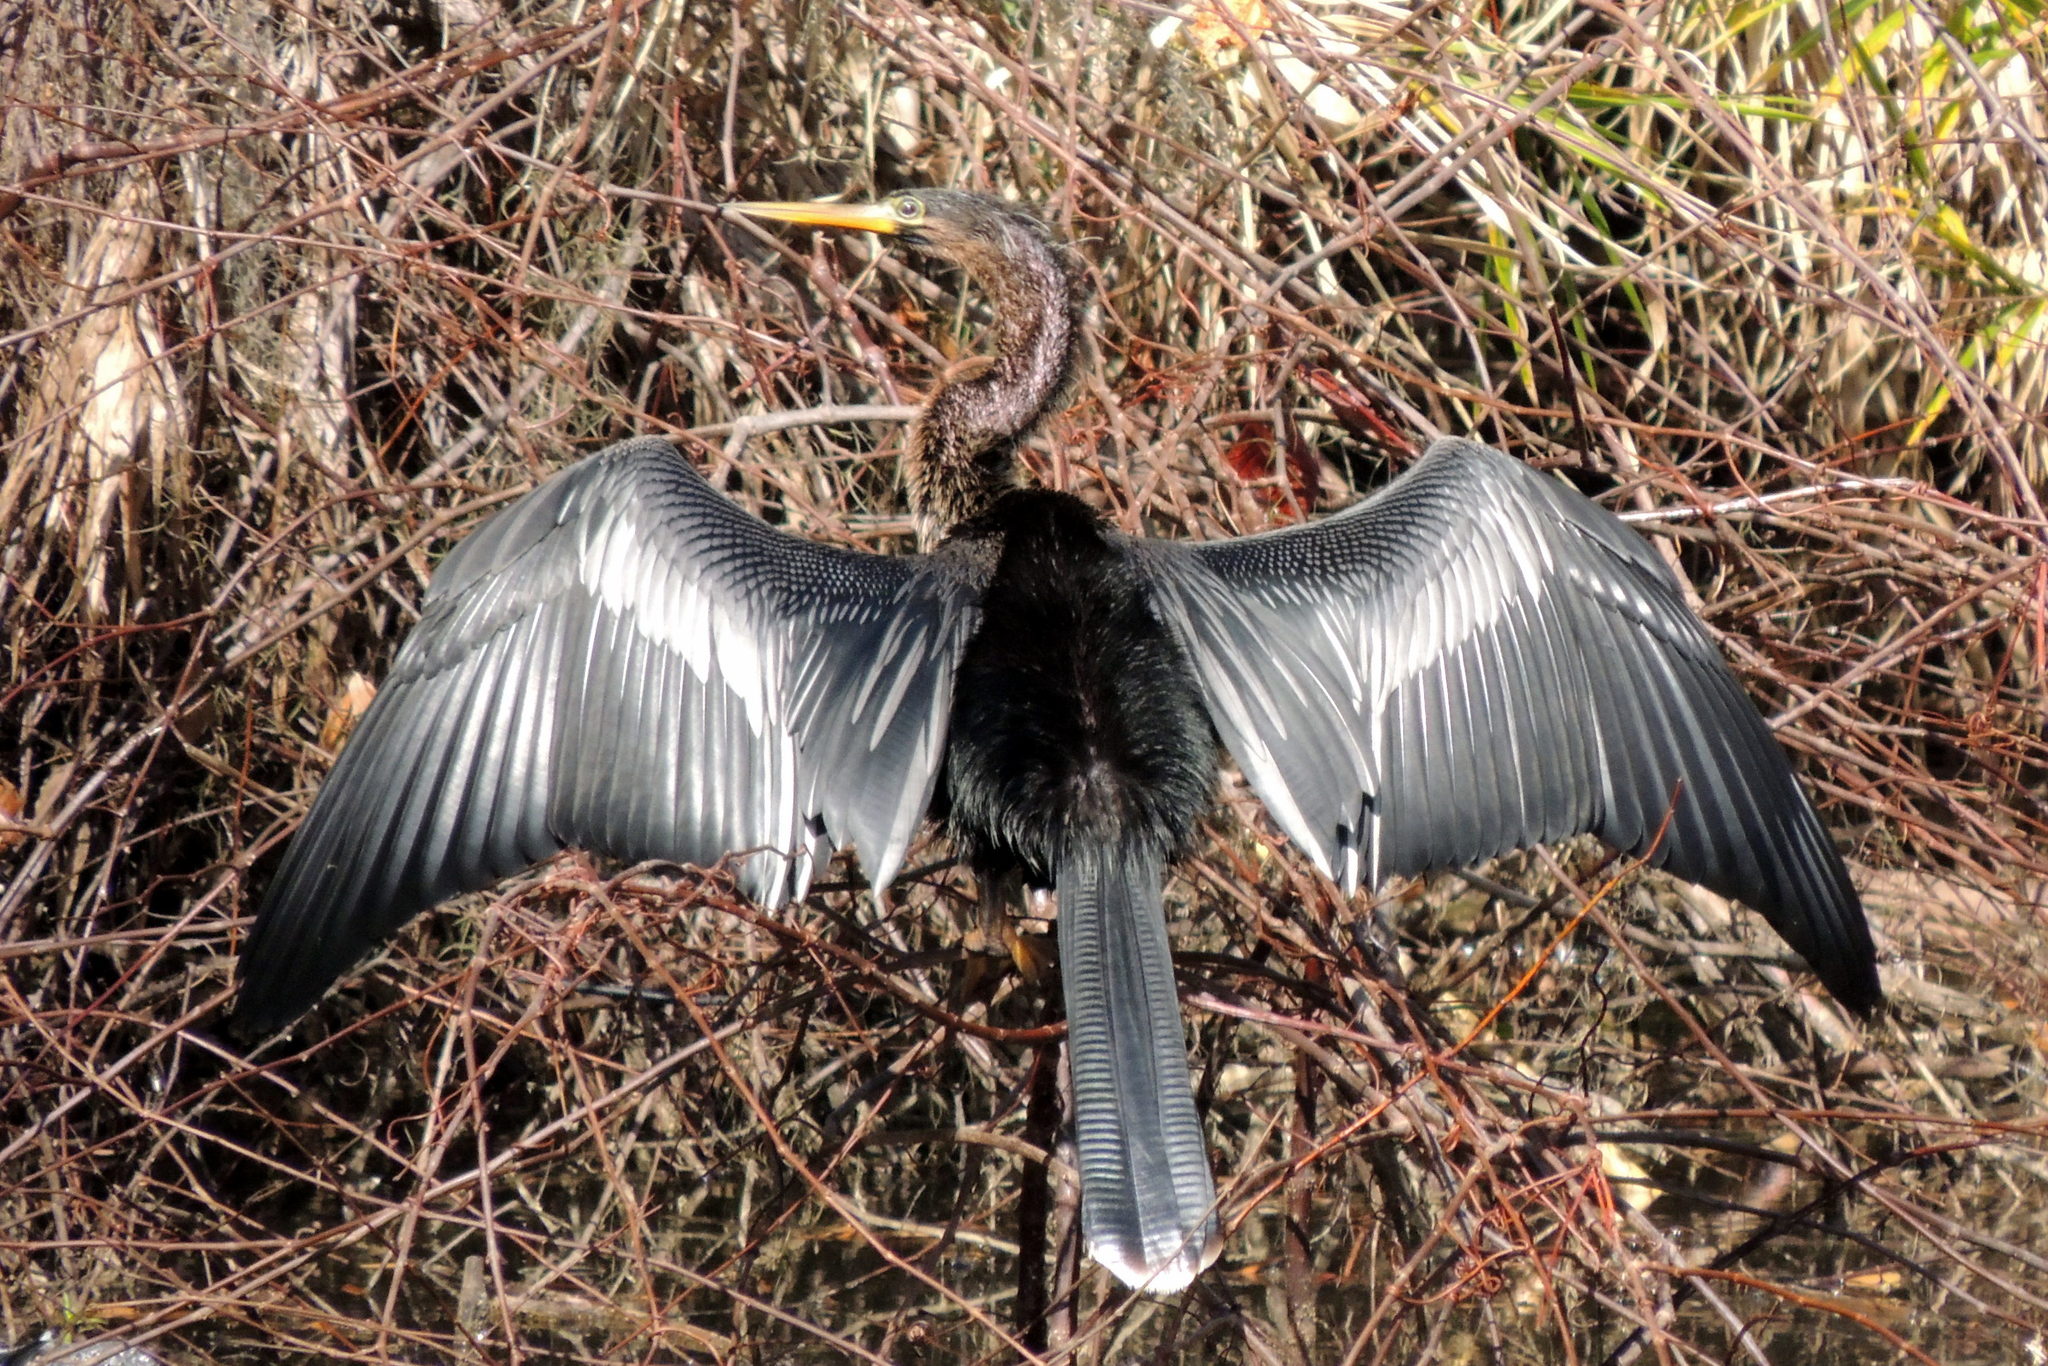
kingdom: Animalia
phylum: Chordata
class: Aves
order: Suliformes
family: Anhingidae
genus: Anhinga
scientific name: Anhinga anhinga
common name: Anhinga
